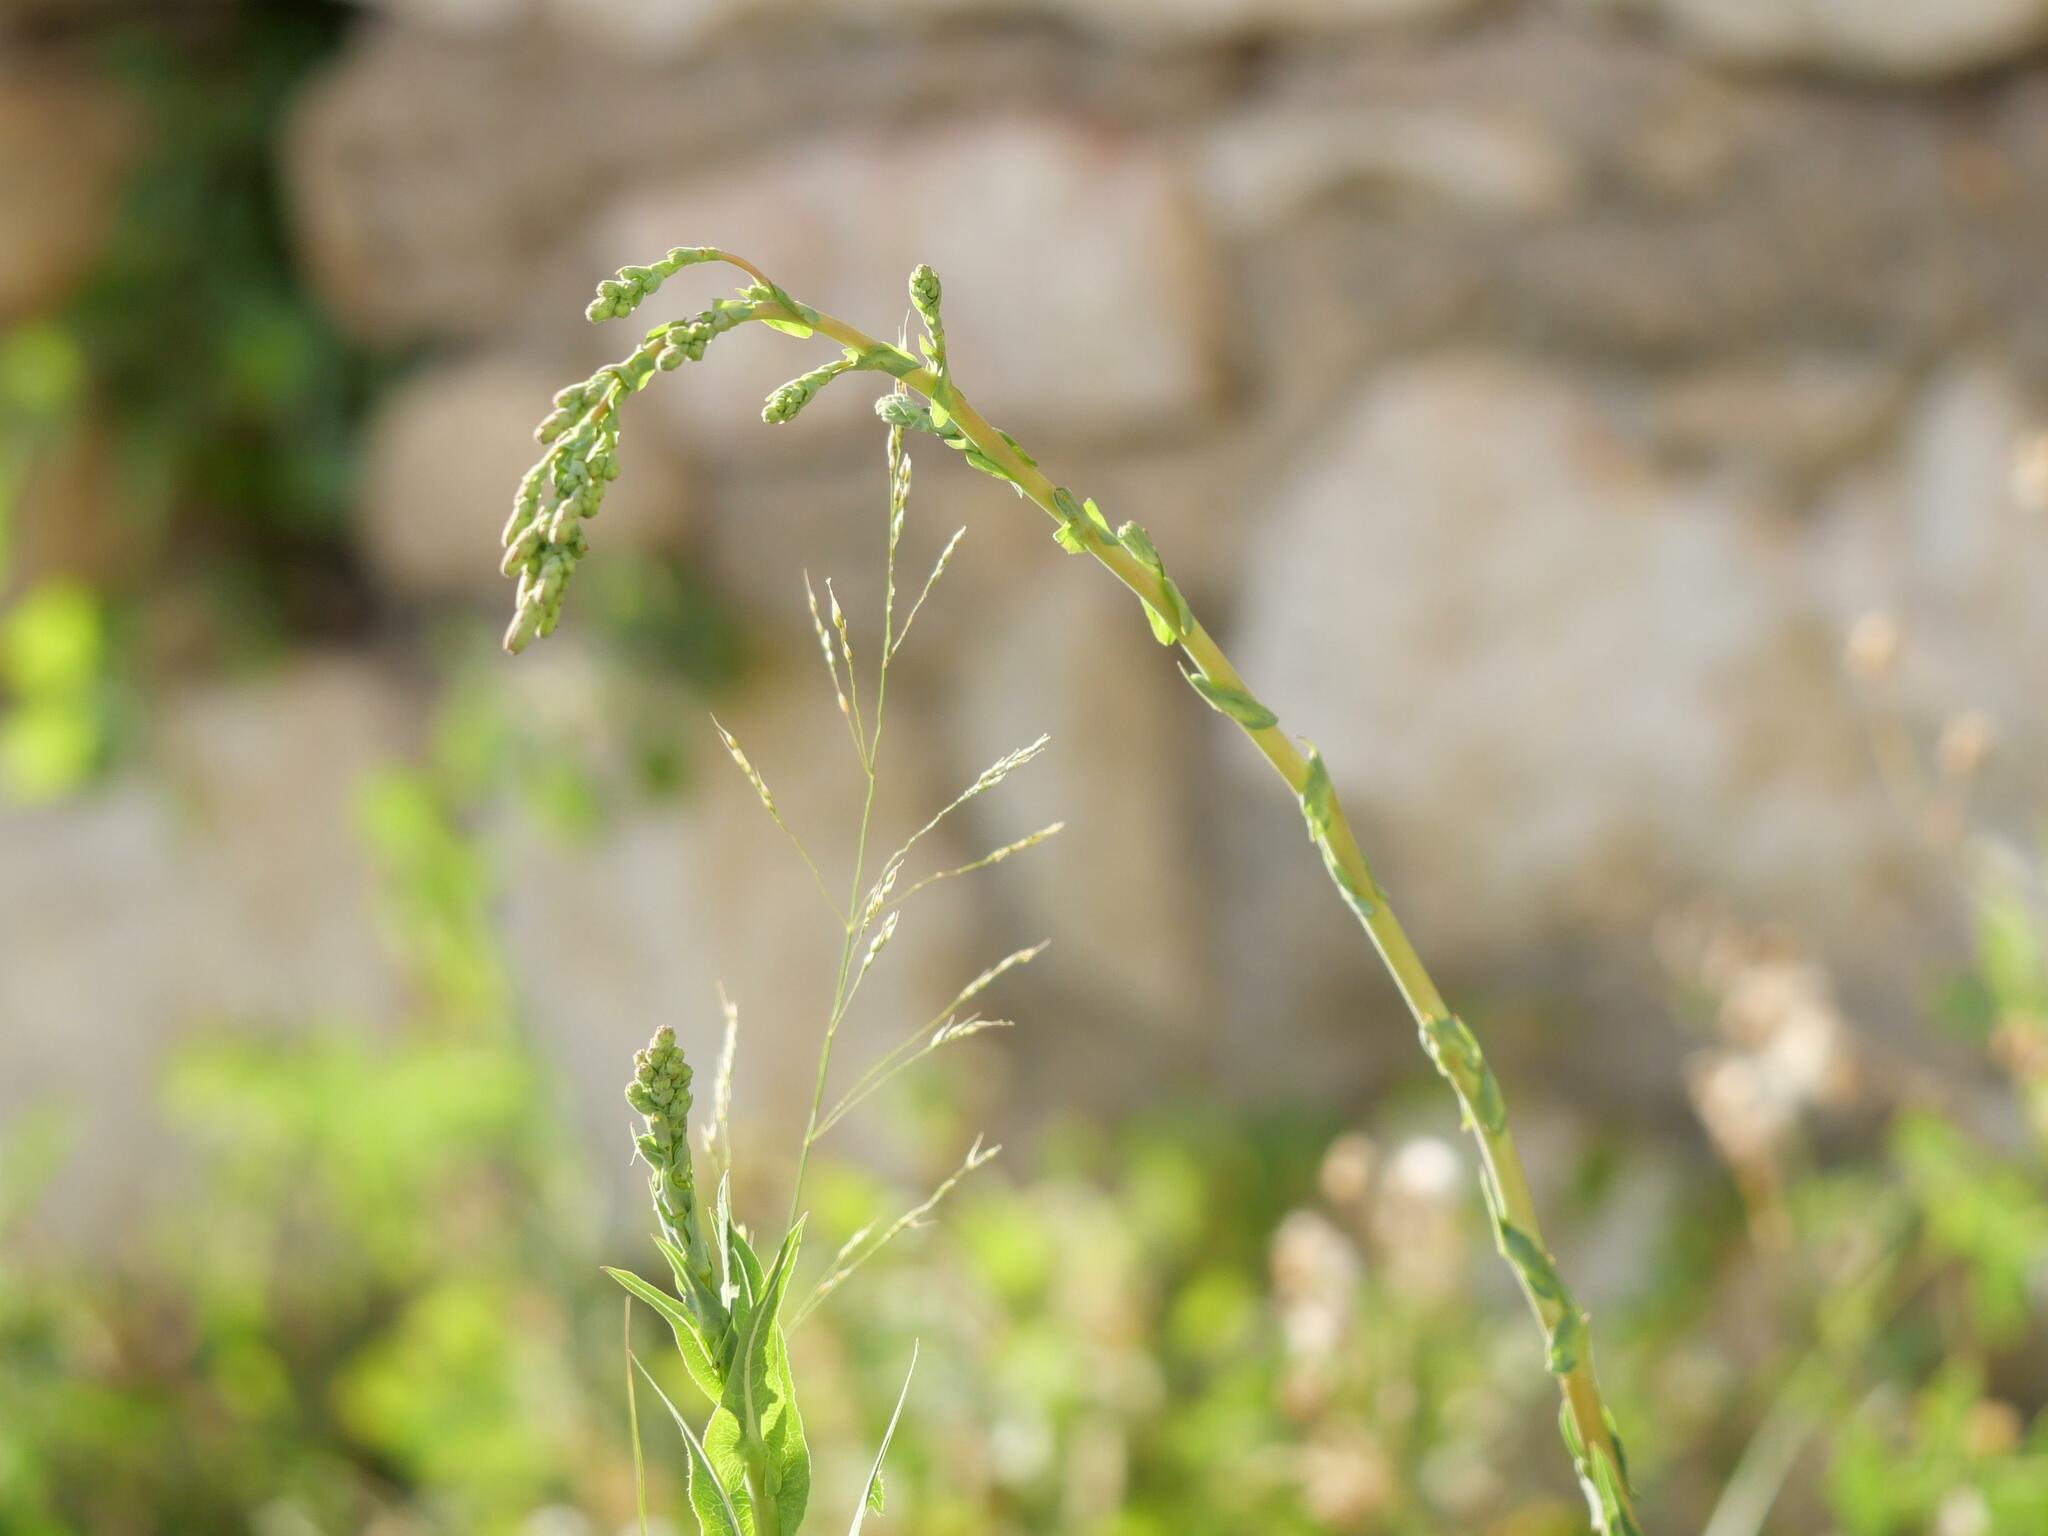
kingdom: Plantae
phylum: Tracheophyta
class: Magnoliopsida
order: Asterales
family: Asteraceae
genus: Lactuca
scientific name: Lactuca serriola
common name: Prickly lettuce
